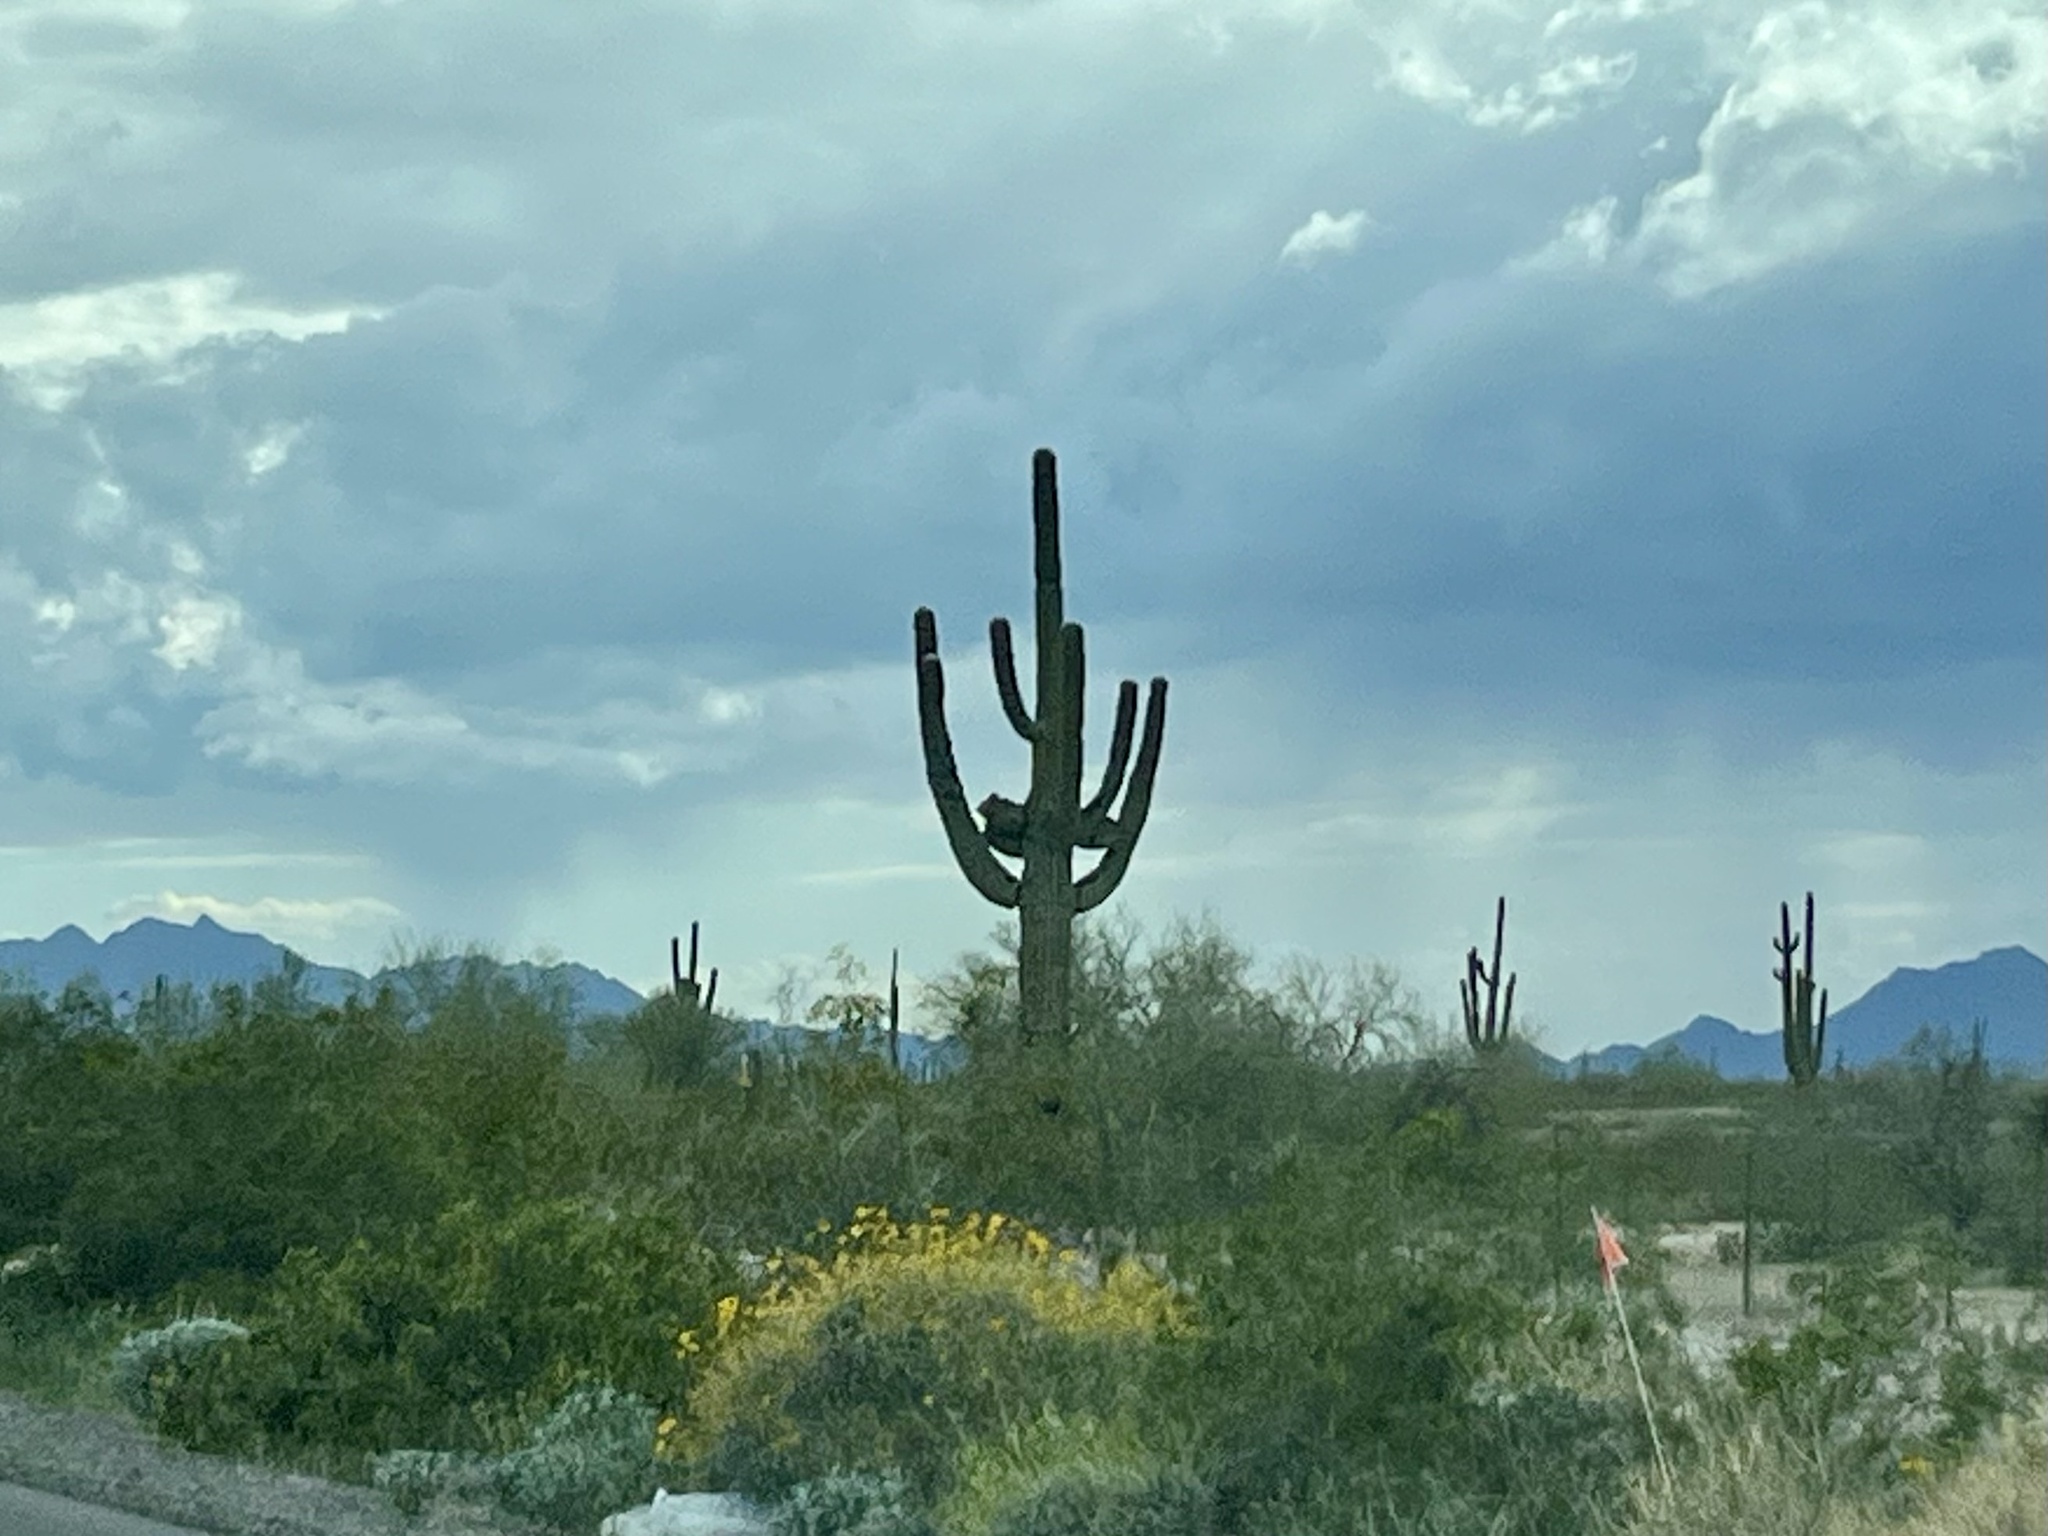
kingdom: Plantae
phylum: Tracheophyta
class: Magnoliopsida
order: Caryophyllales
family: Cactaceae
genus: Carnegiea
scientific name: Carnegiea gigantea
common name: Saguaro
